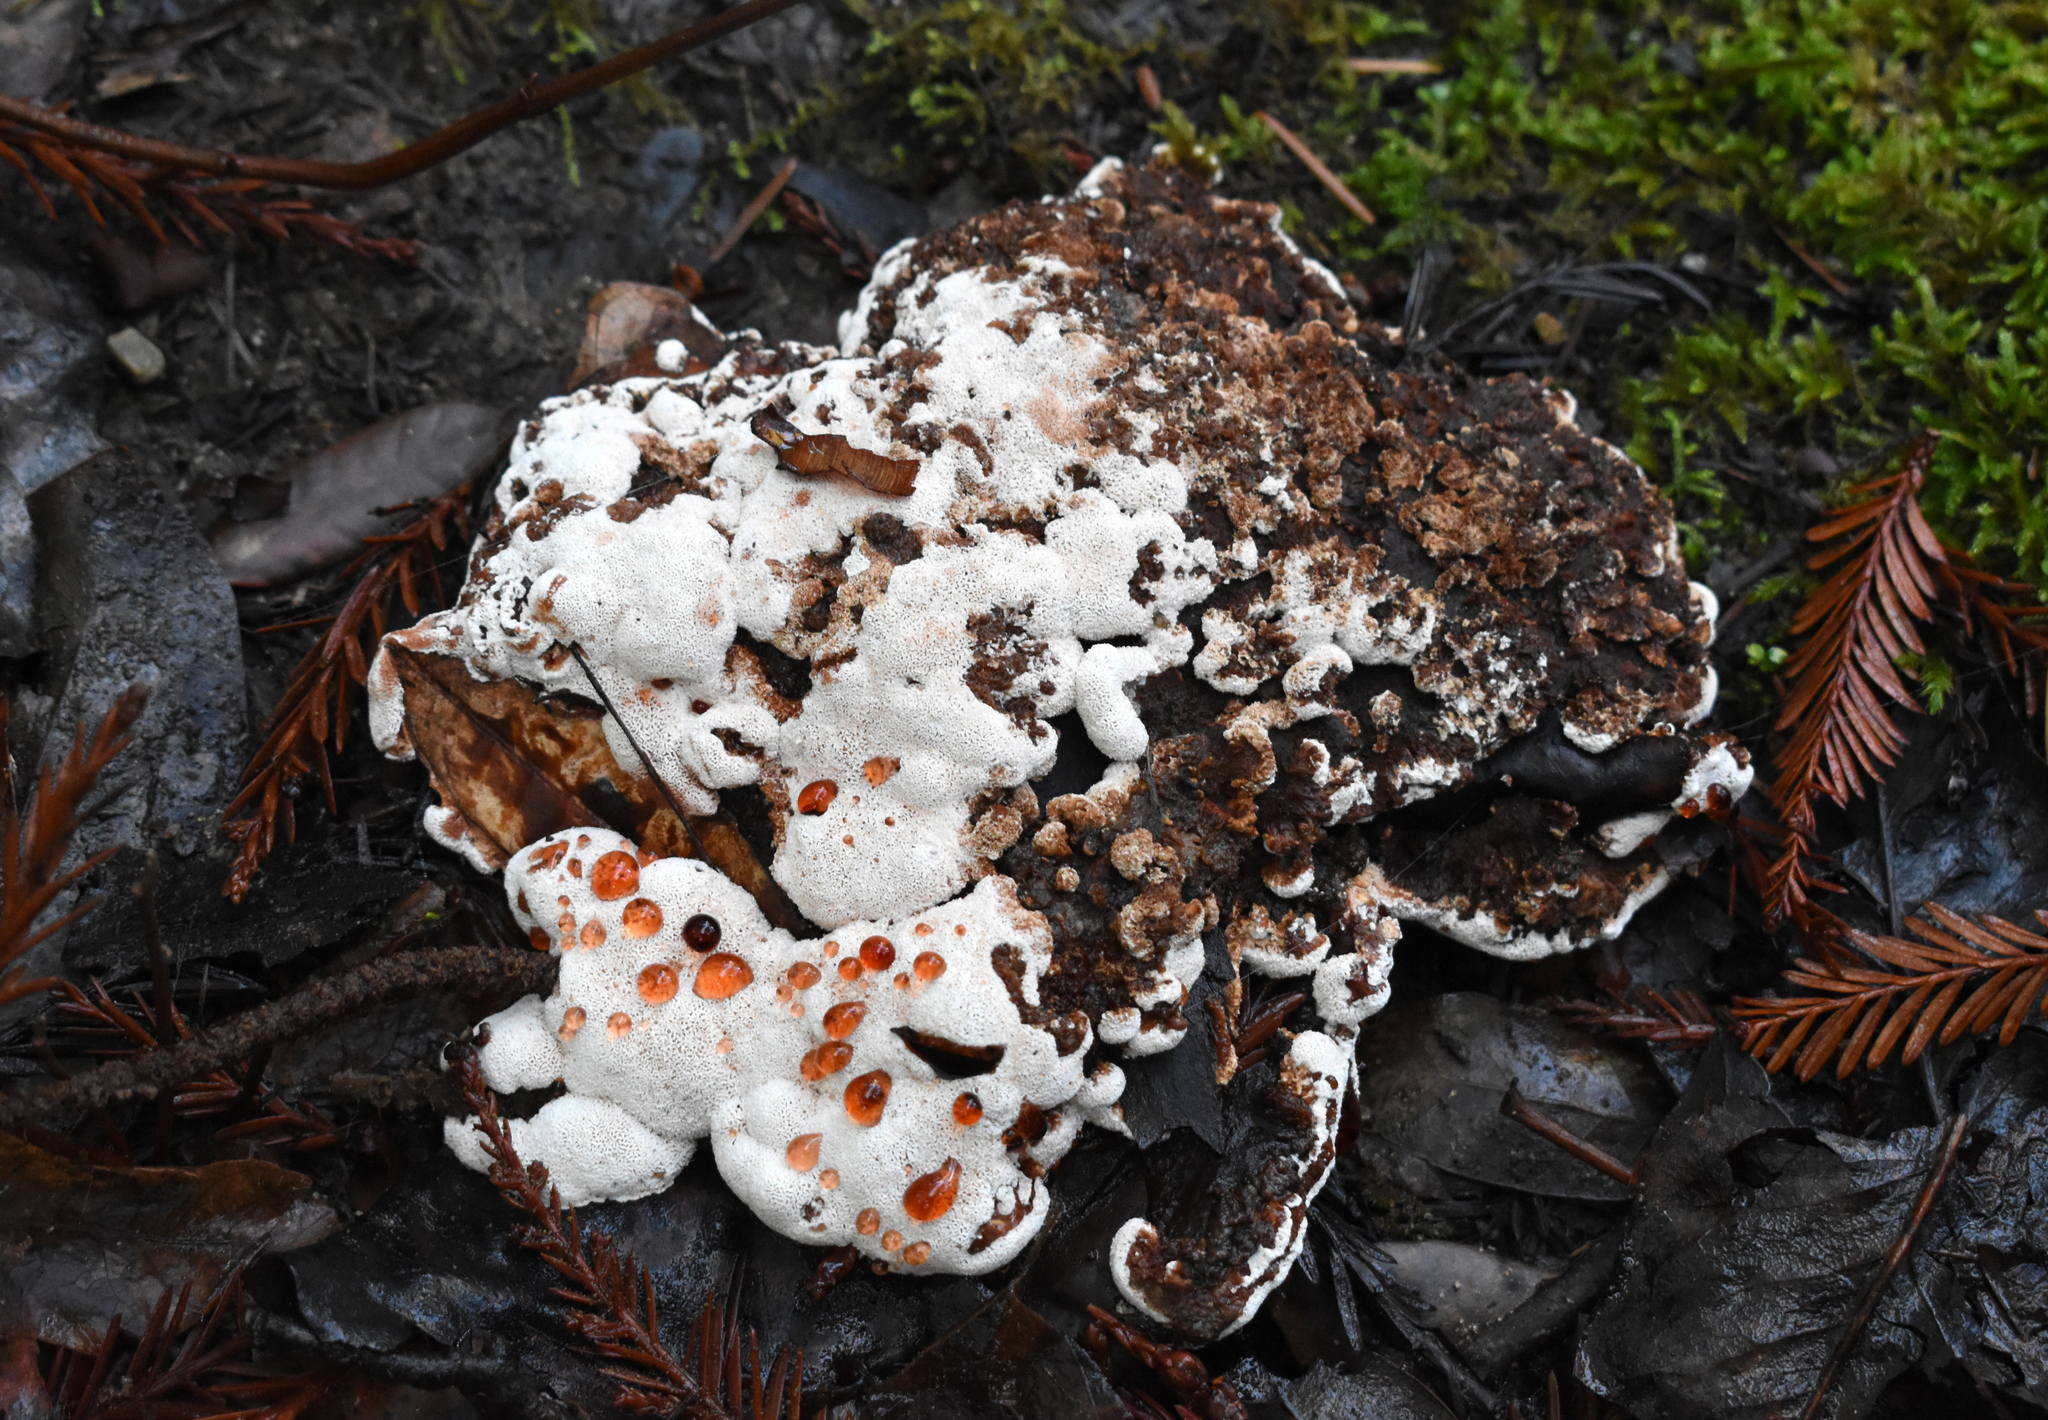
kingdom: Fungi
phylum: Basidiomycota
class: Agaricomycetes
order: Polyporales
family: Podoscyphaceae
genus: Abortiporus
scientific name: Abortiporus biennis
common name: Blushing rosette
